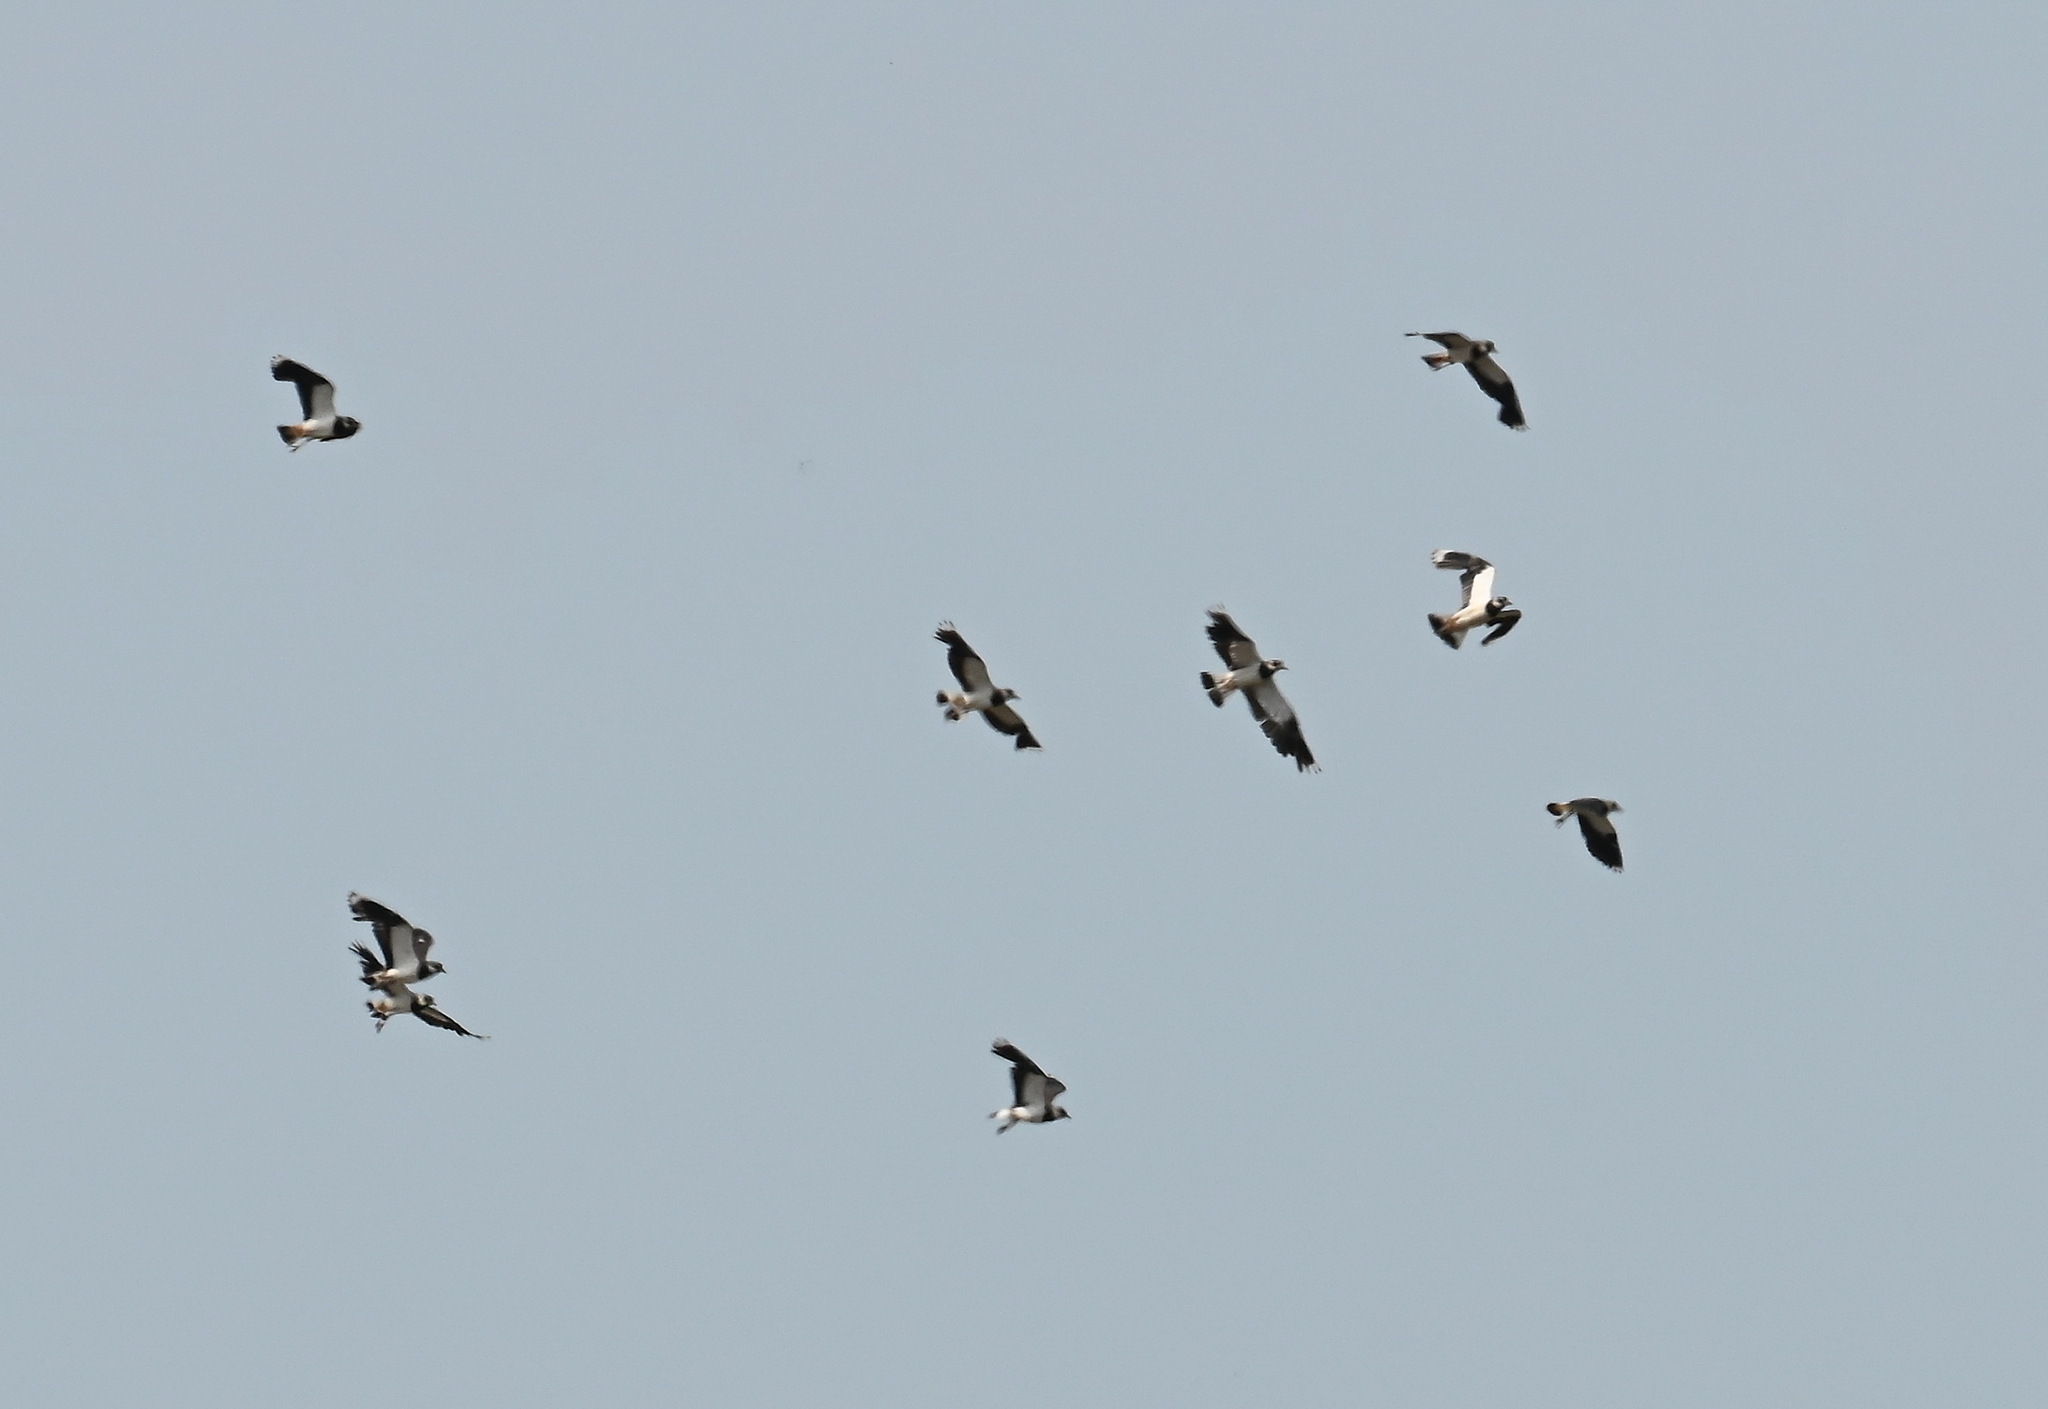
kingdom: Animalia
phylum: Chordata
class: Aves
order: Charadriiformes
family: Charadriidae
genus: Vanellus
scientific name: Vanellus vanellus
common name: Northern lapwing
